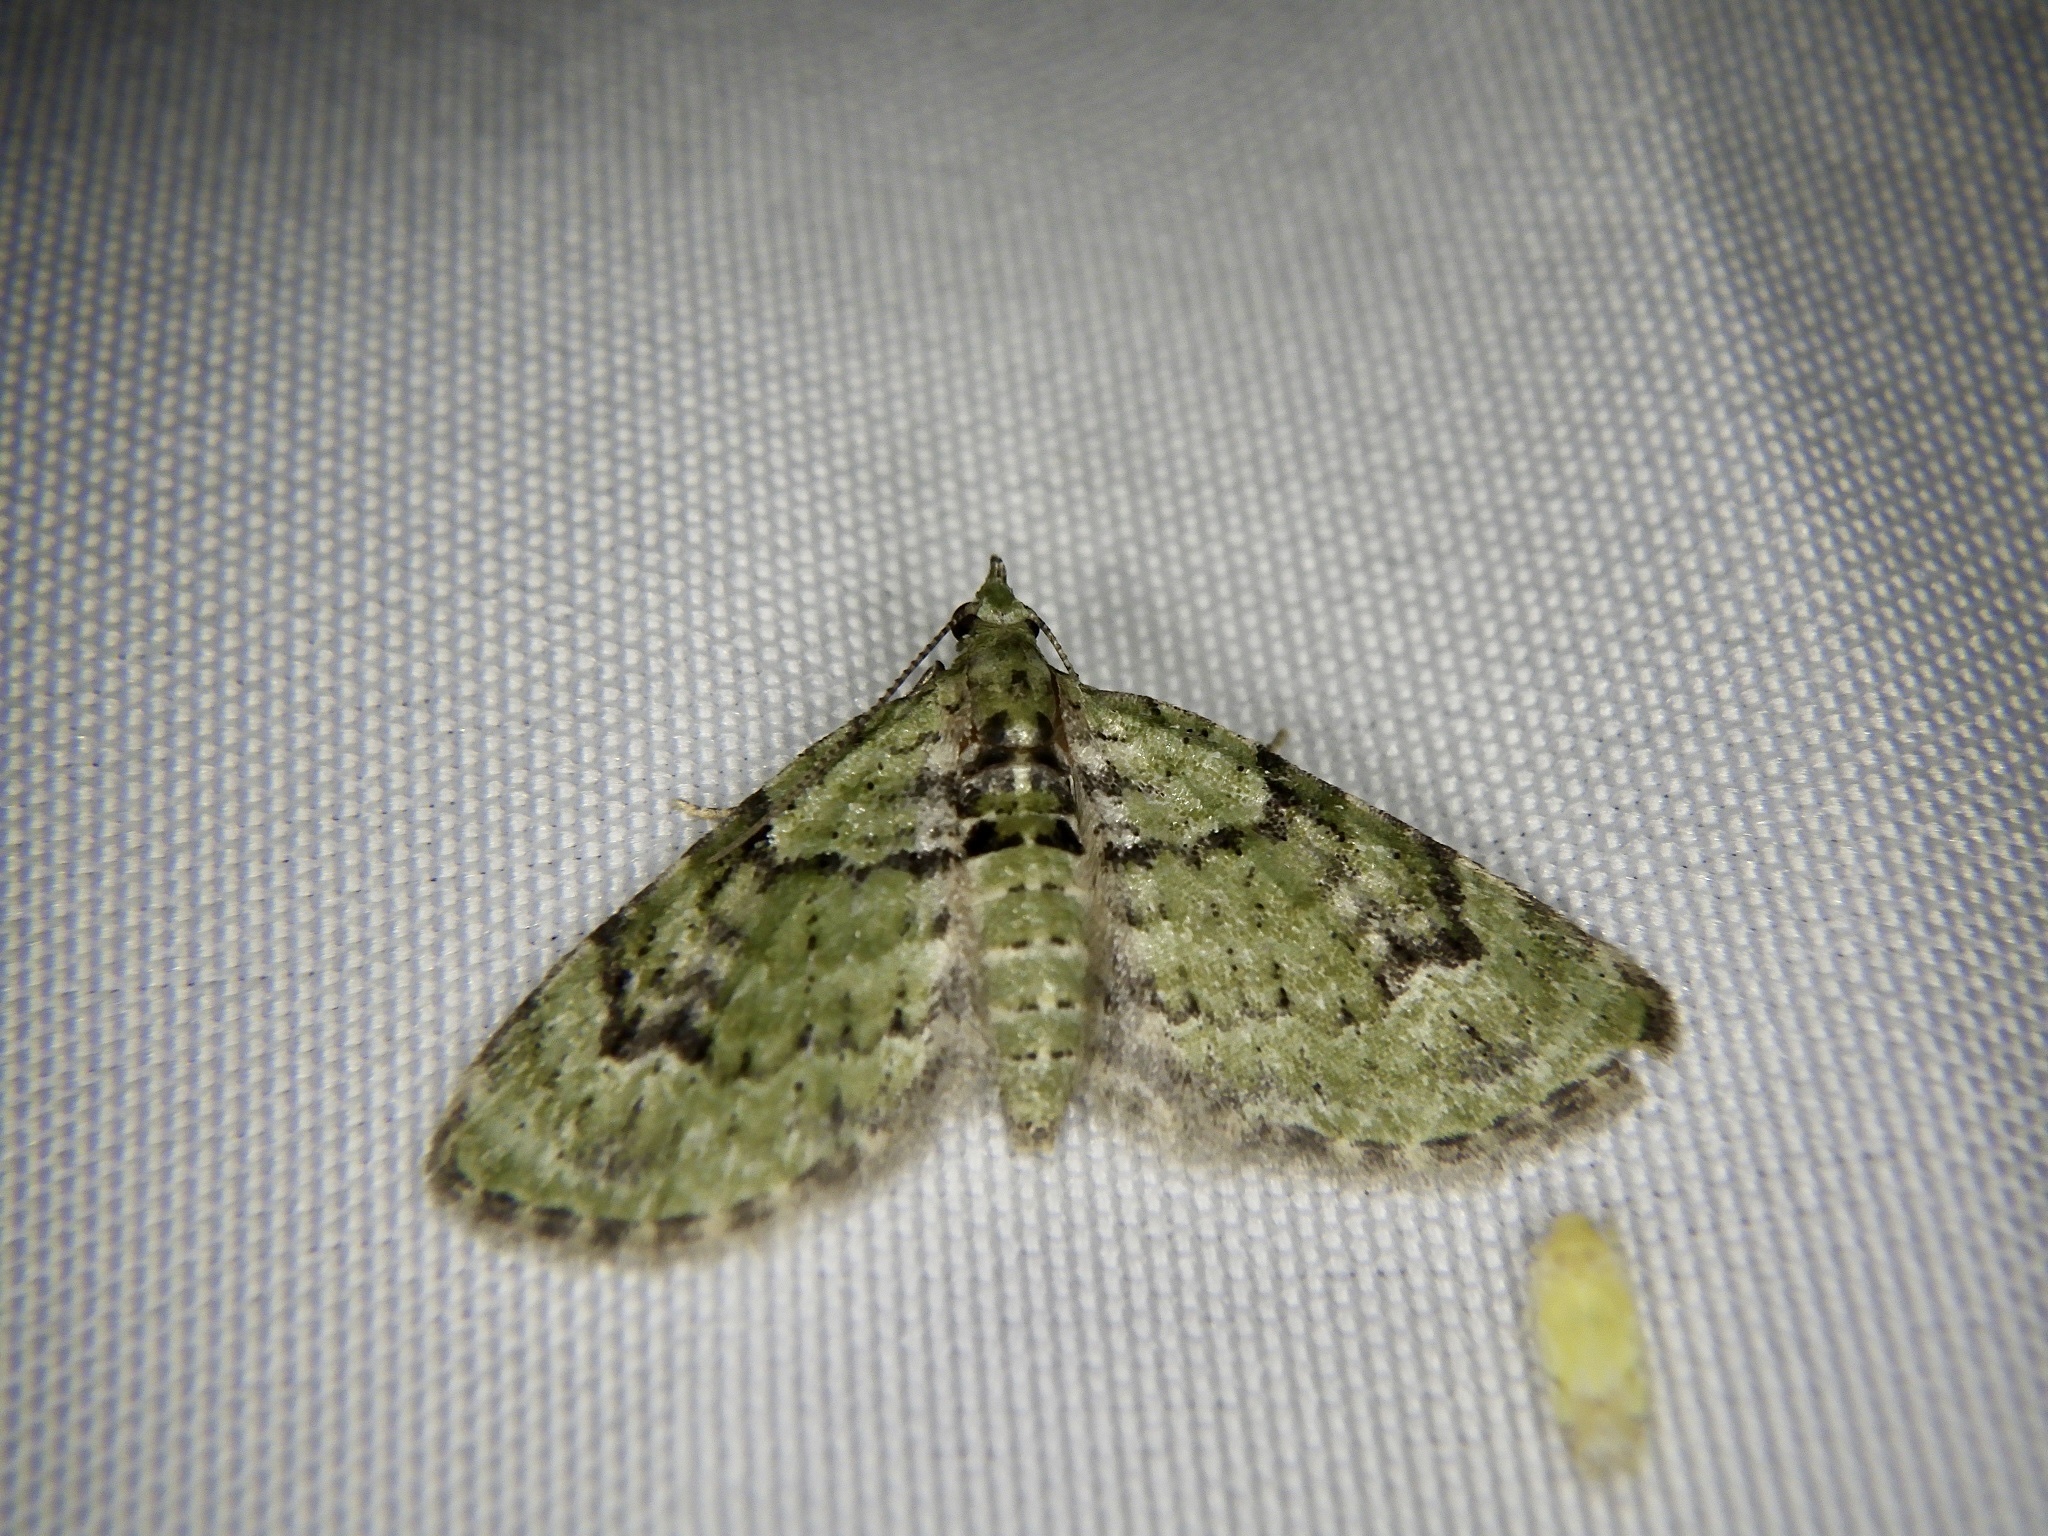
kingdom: Animalia
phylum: Arthropoda
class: Insecta
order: Lepidoptera
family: Geometridae
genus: Chloroclystis
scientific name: Chloroclystis v-ata
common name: V-pug
